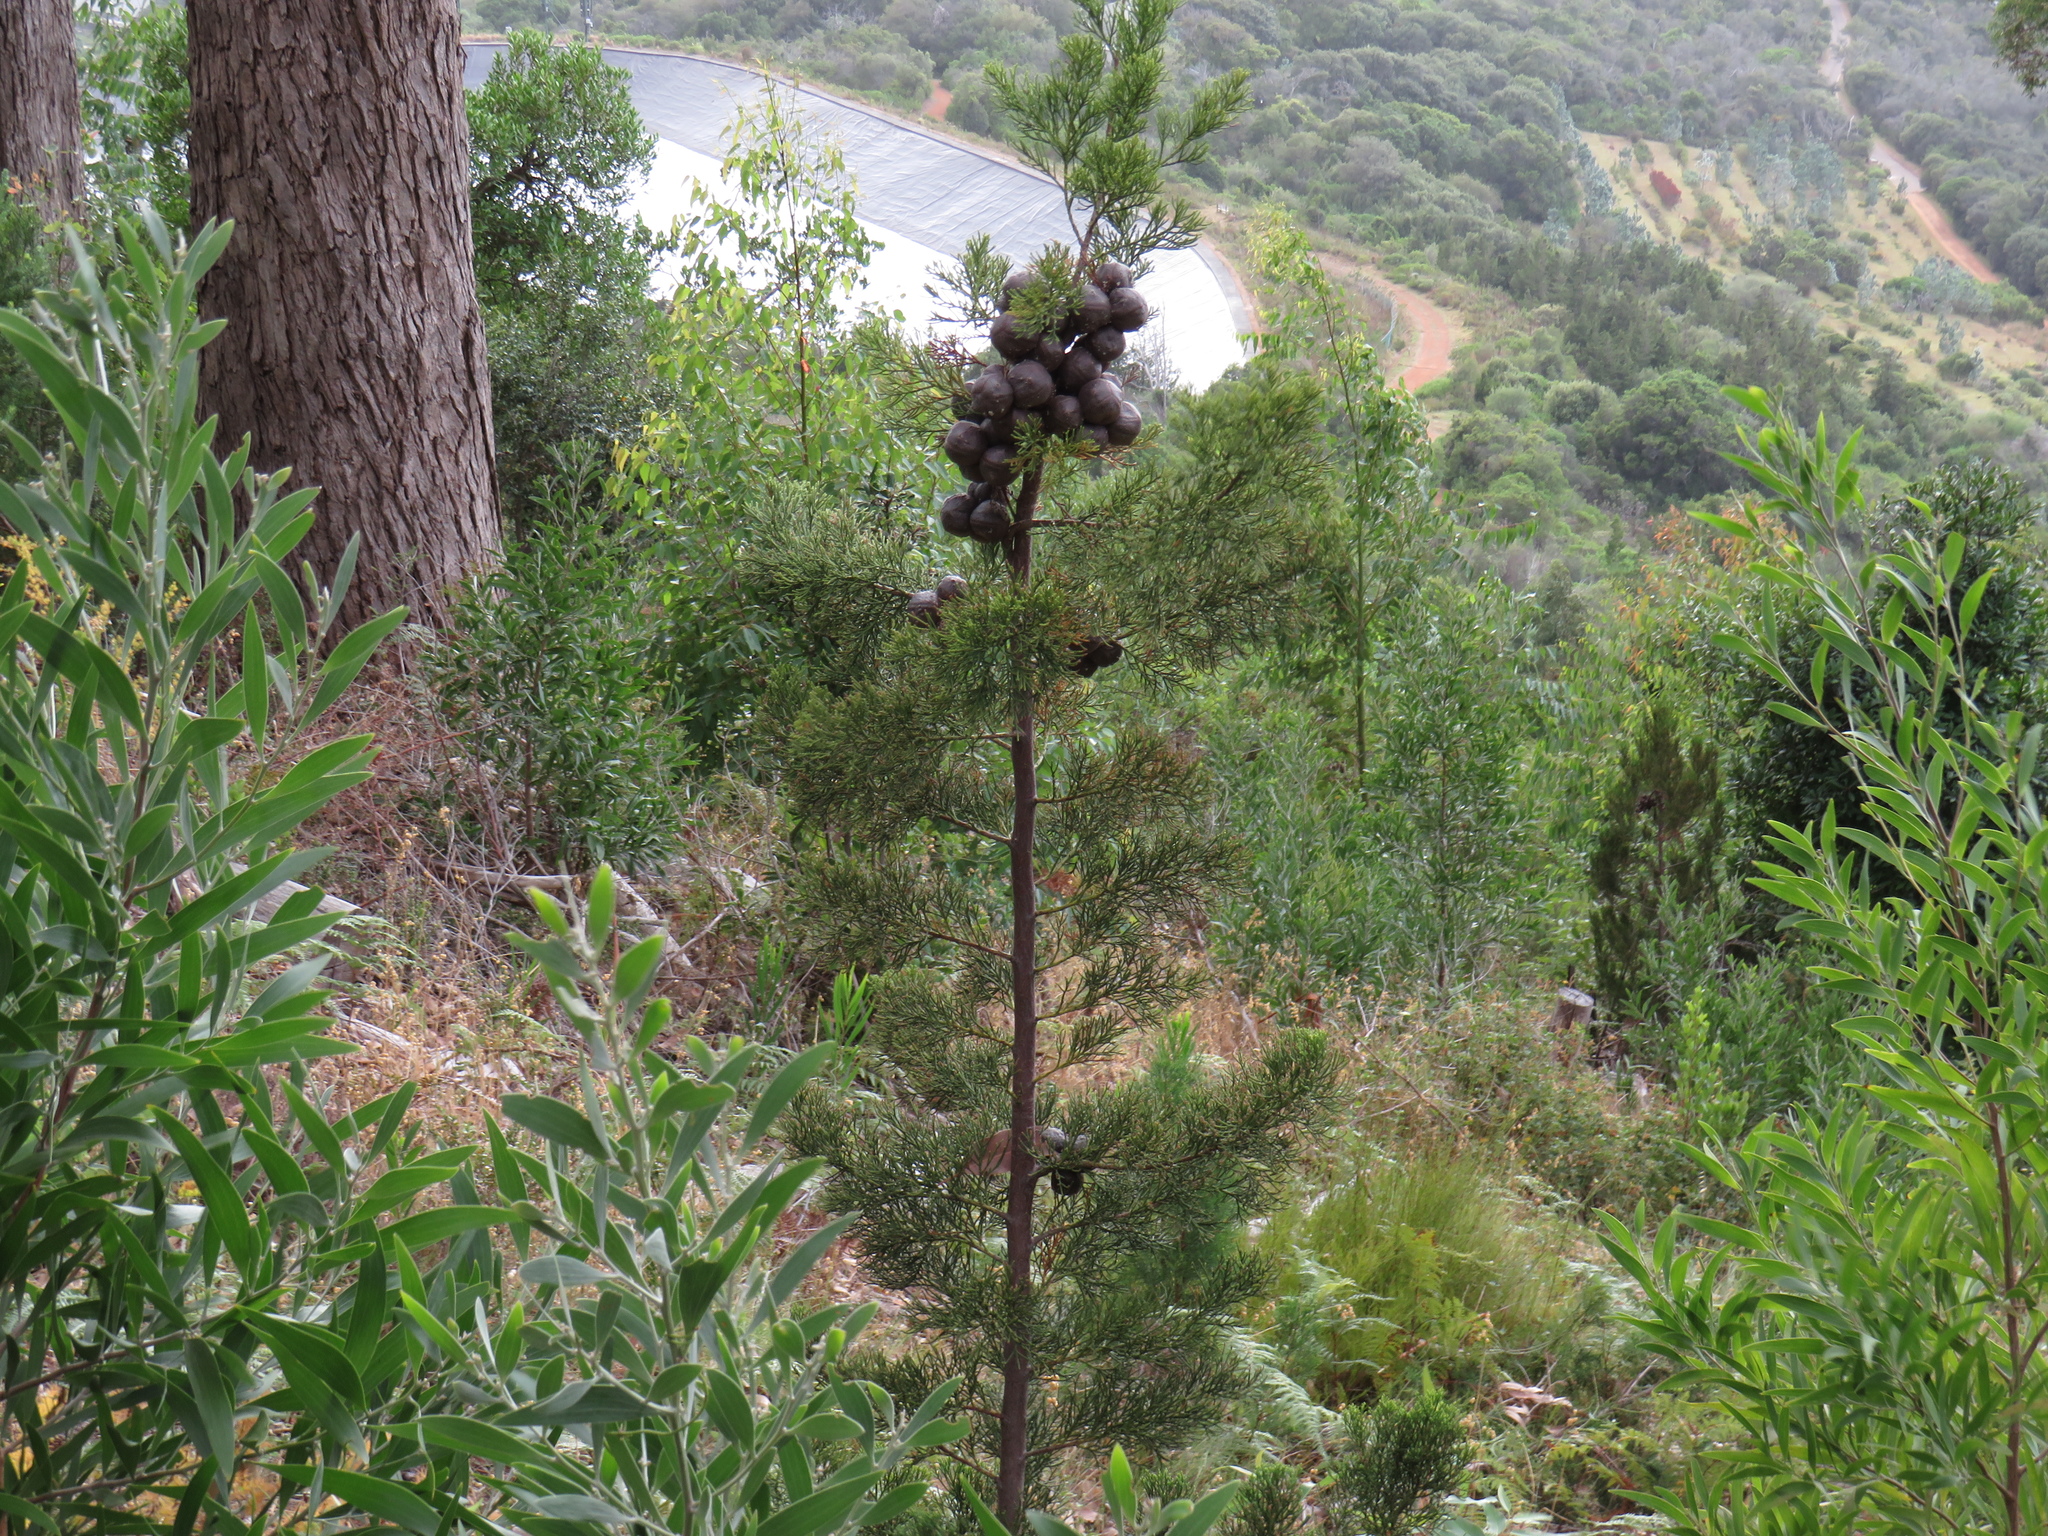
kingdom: Plantae
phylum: Tracheophyta
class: Pinopsida
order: Pinales
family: Cupressaceae
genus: Widdringtonia
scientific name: Widdringtonia nodiflora
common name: Cape cypress
